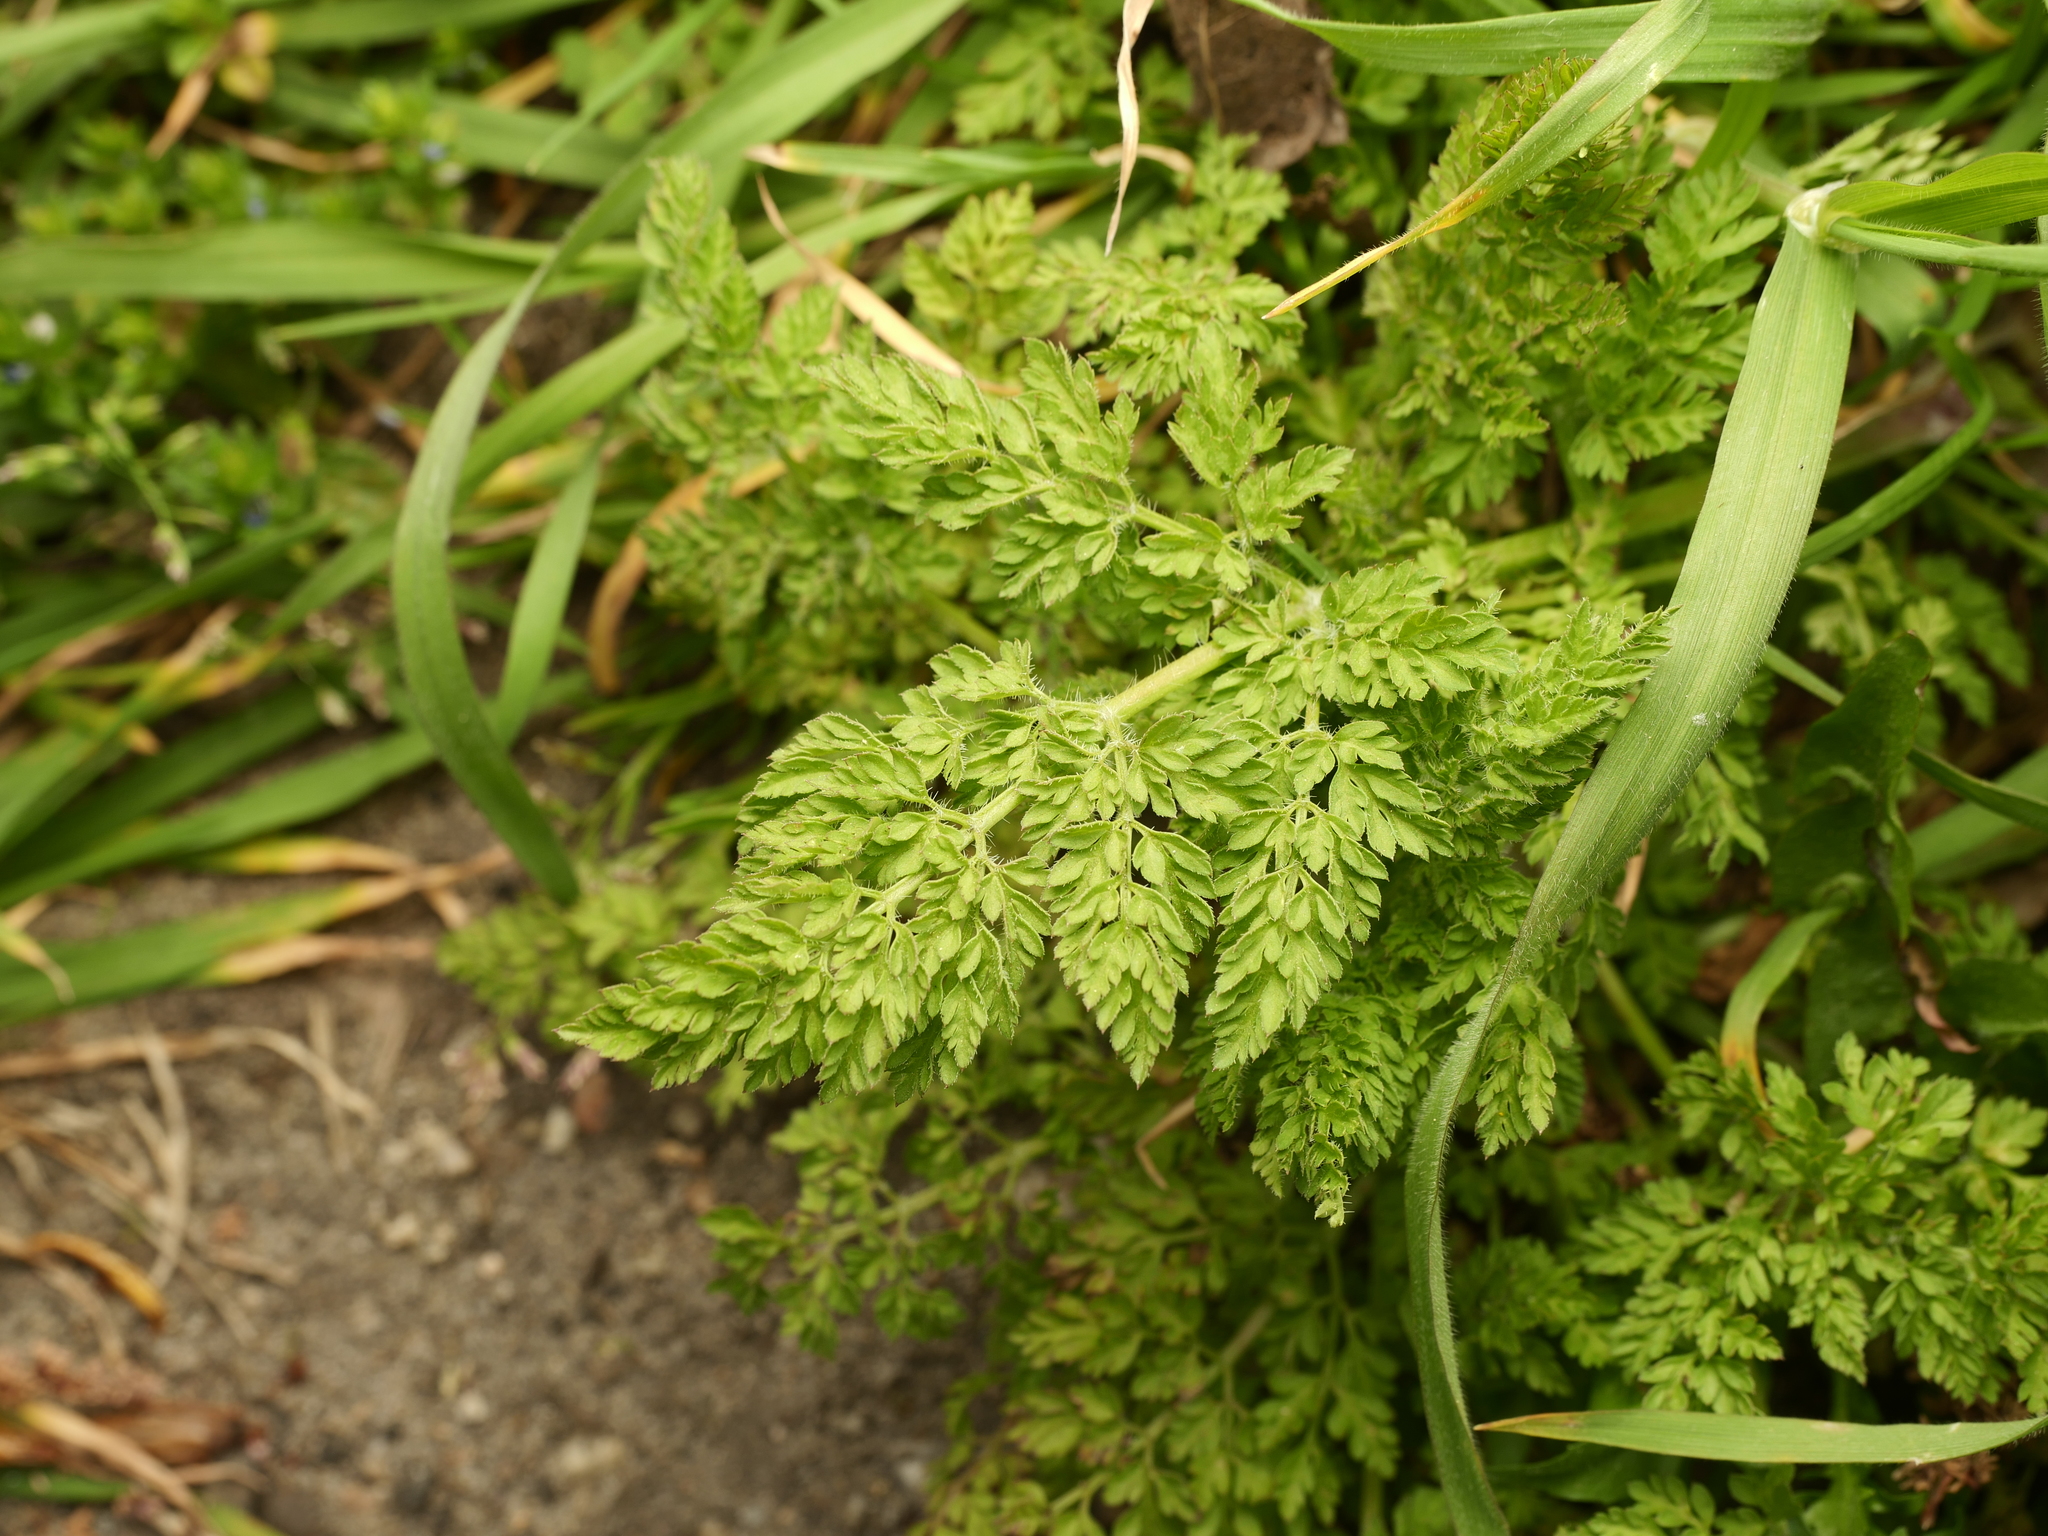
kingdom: Plantae
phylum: Tracheophyta
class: Magnoliopsida
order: Apiales
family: Apiaceae
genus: Anthriscus
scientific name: Anthriscus caucalis
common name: Bur chervil
